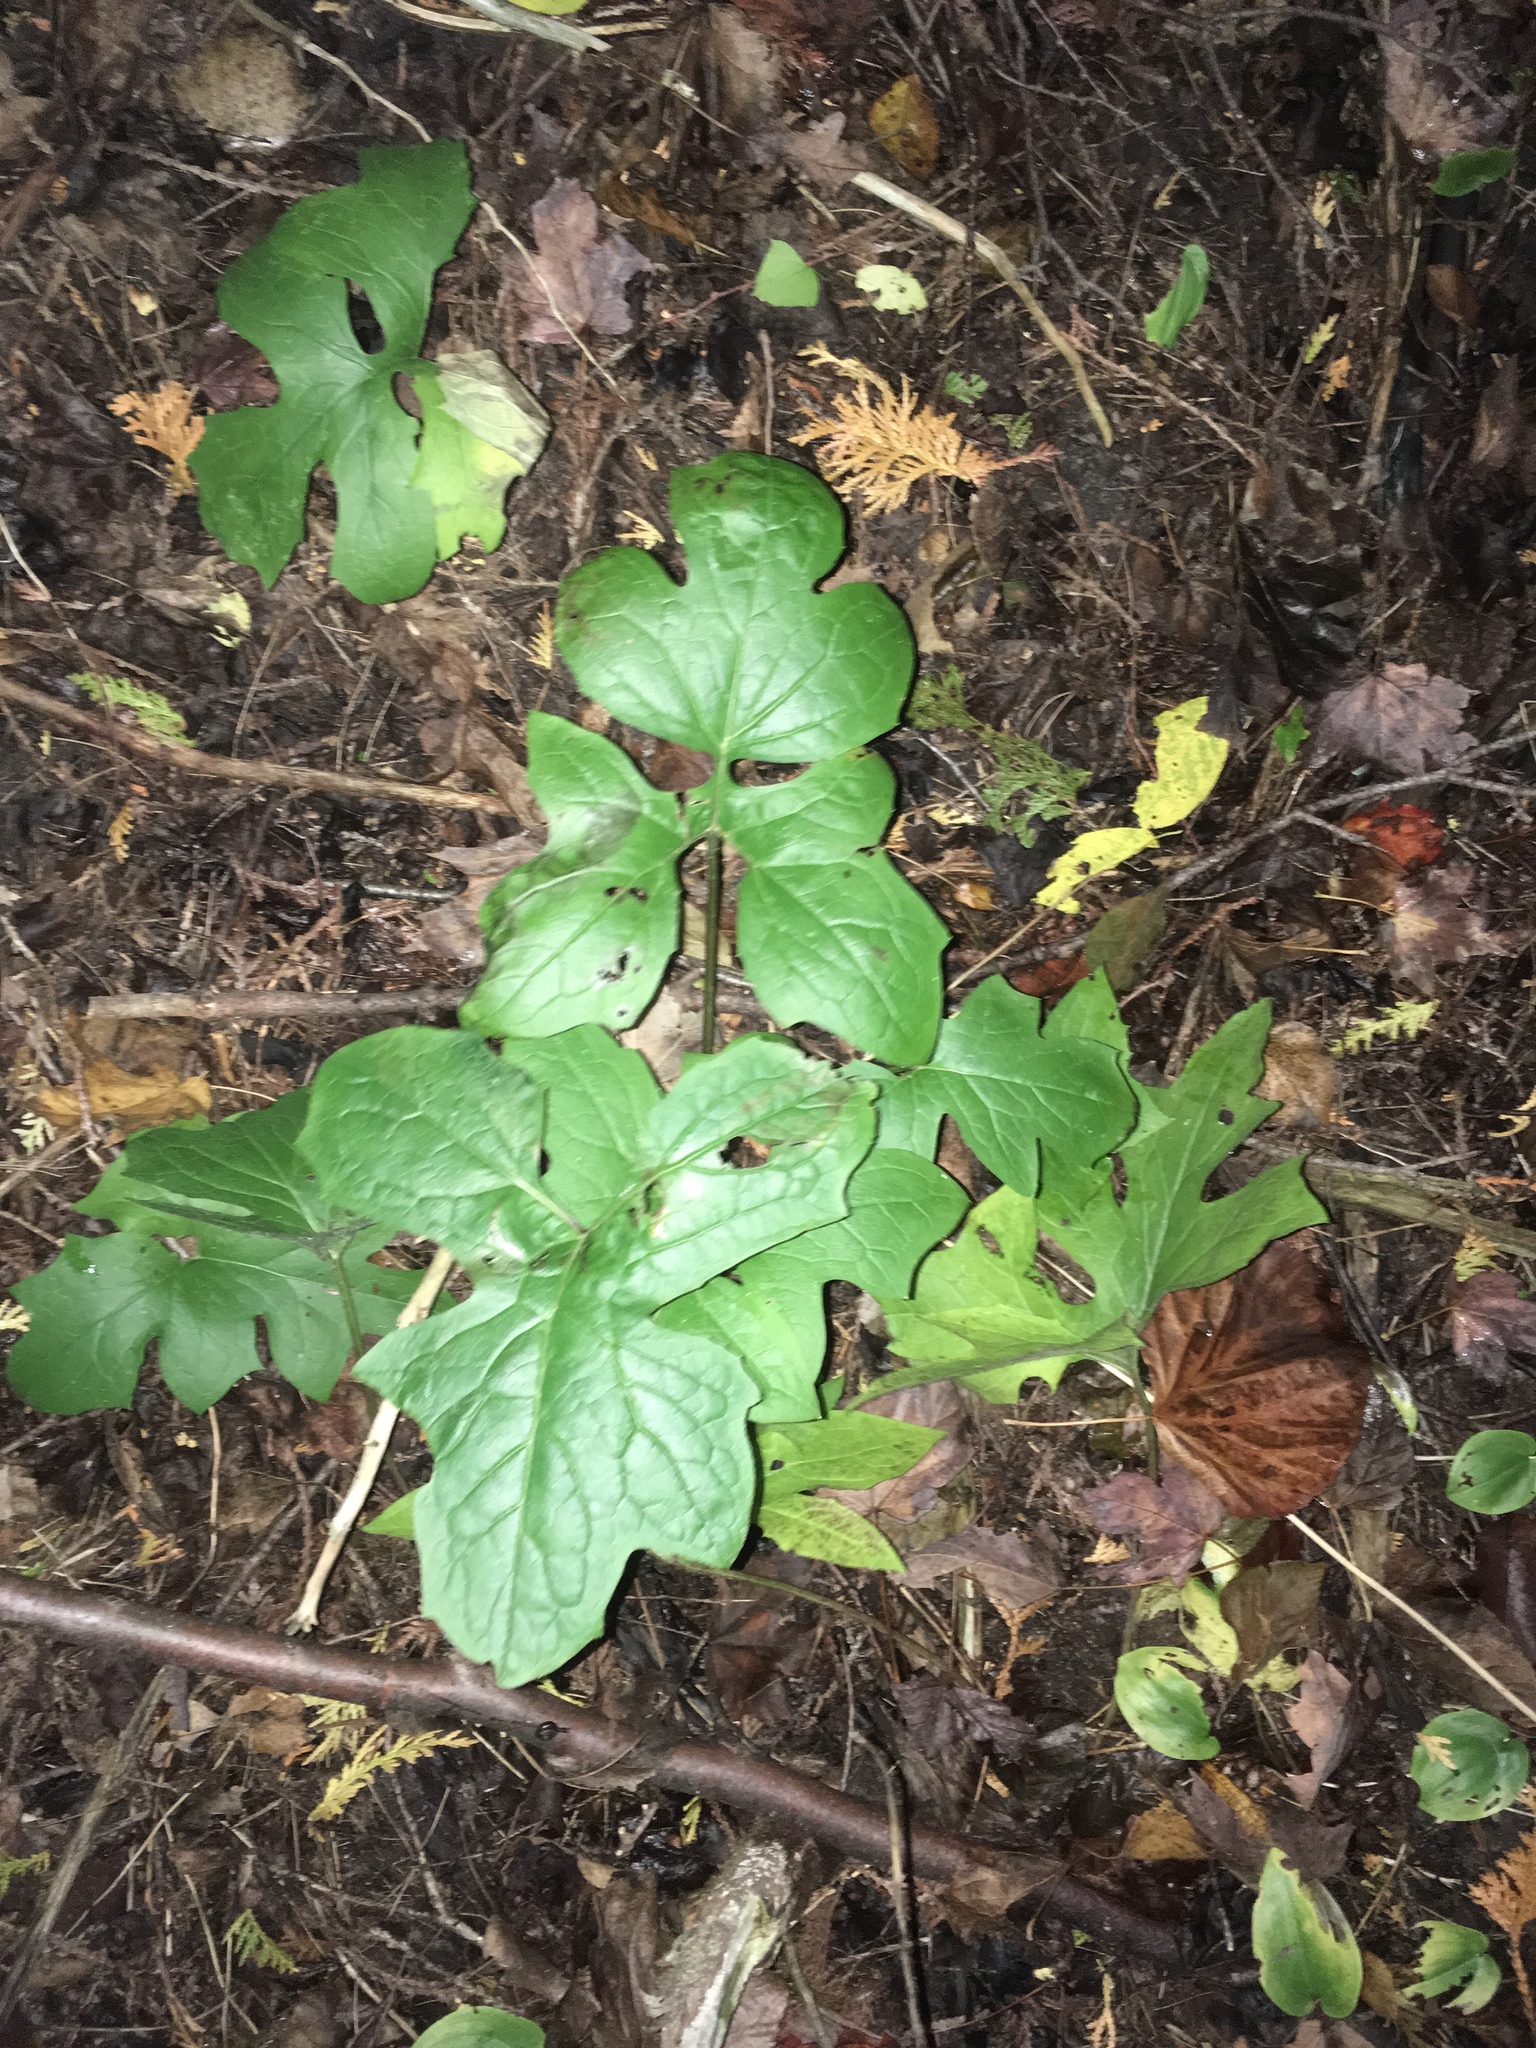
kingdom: Plantae
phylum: Tracheophyta
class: Magnoliopsida
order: Asterales
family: Asteraceae
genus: Nabalus
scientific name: Nabalus albus
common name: White rattlesnakeroot
